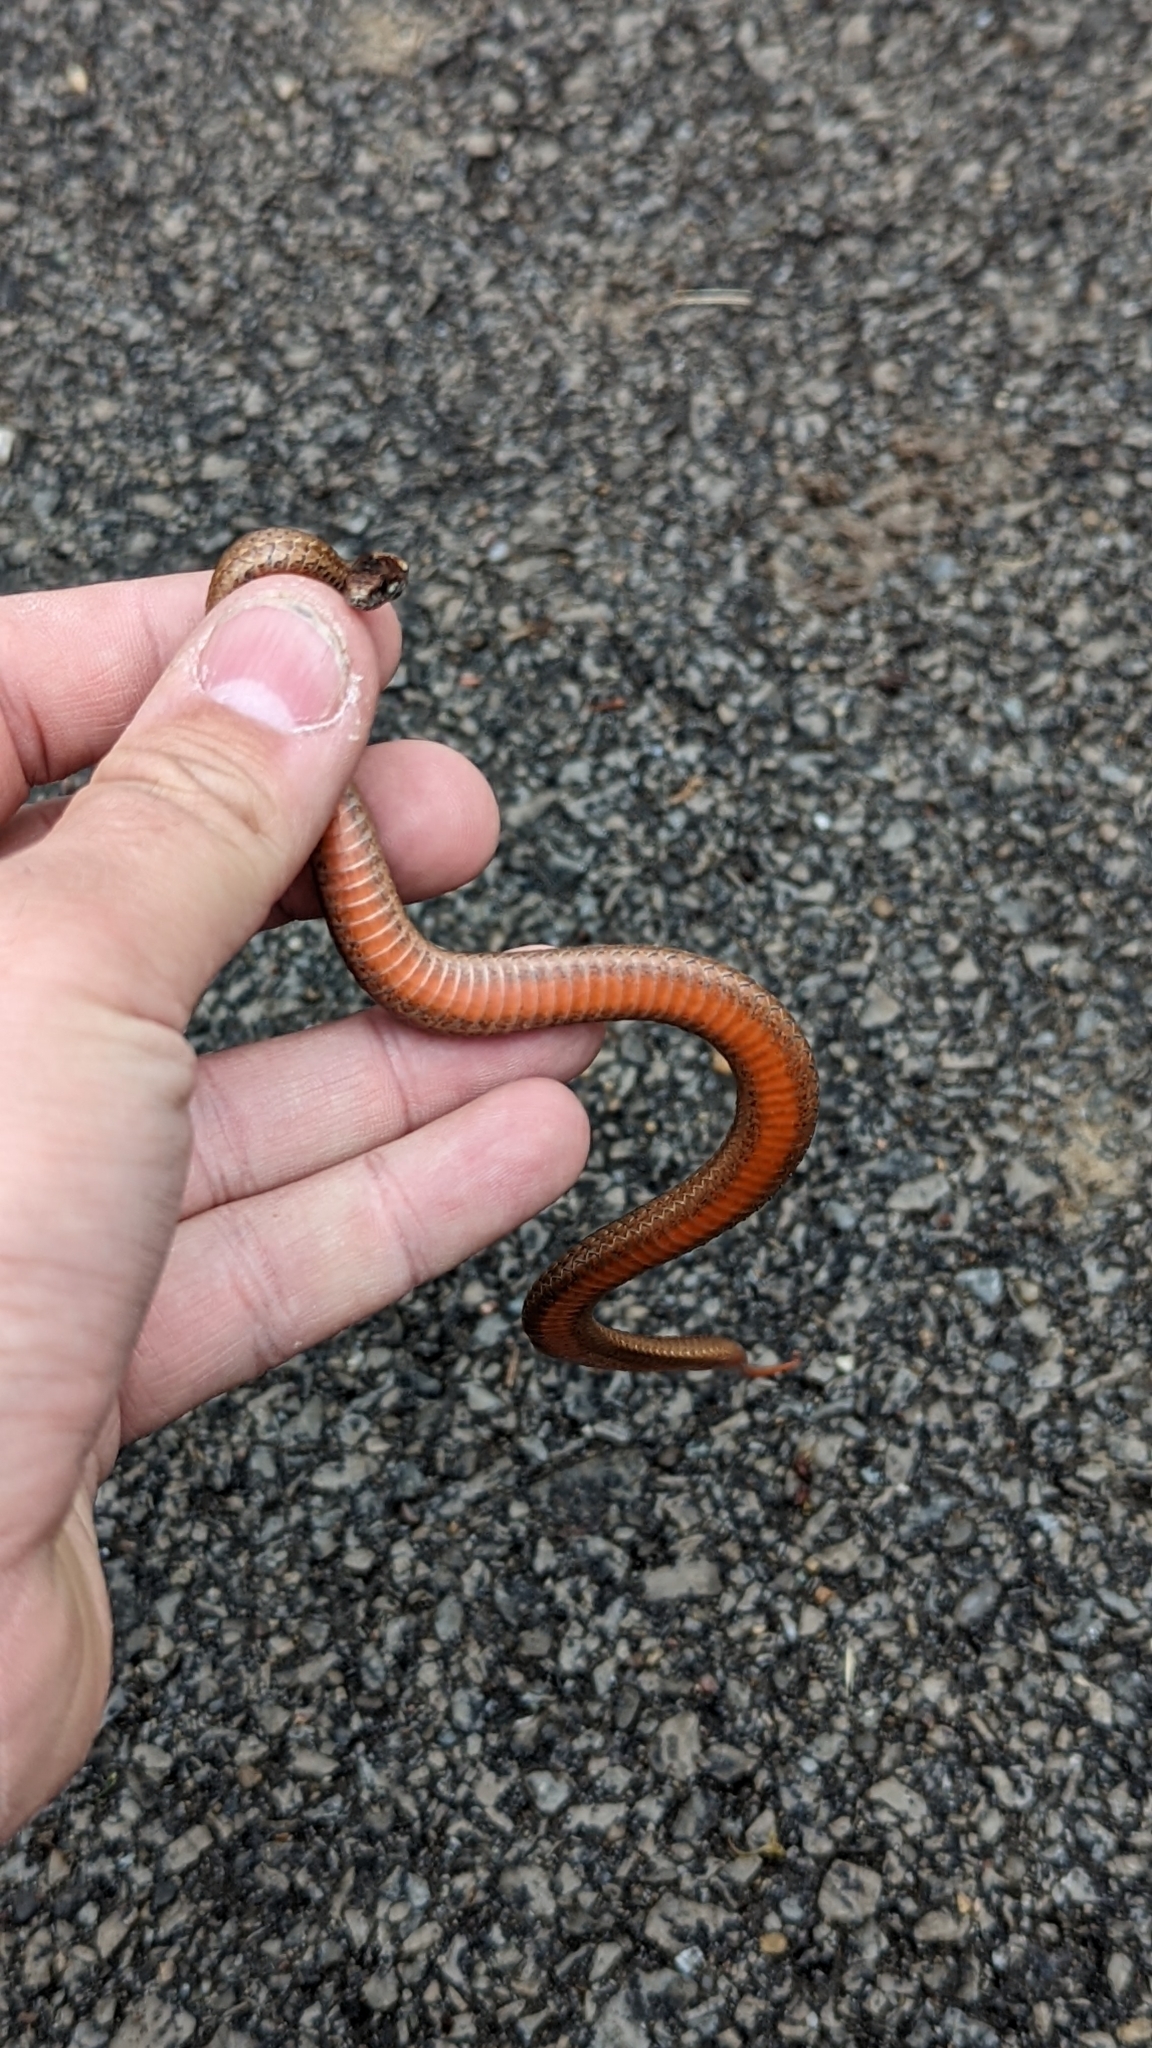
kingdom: Animalia
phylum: Chordata
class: Squamata
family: Colubridae
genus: Storeria
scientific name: Storeria occipitomaculata
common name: Redbelly snake
